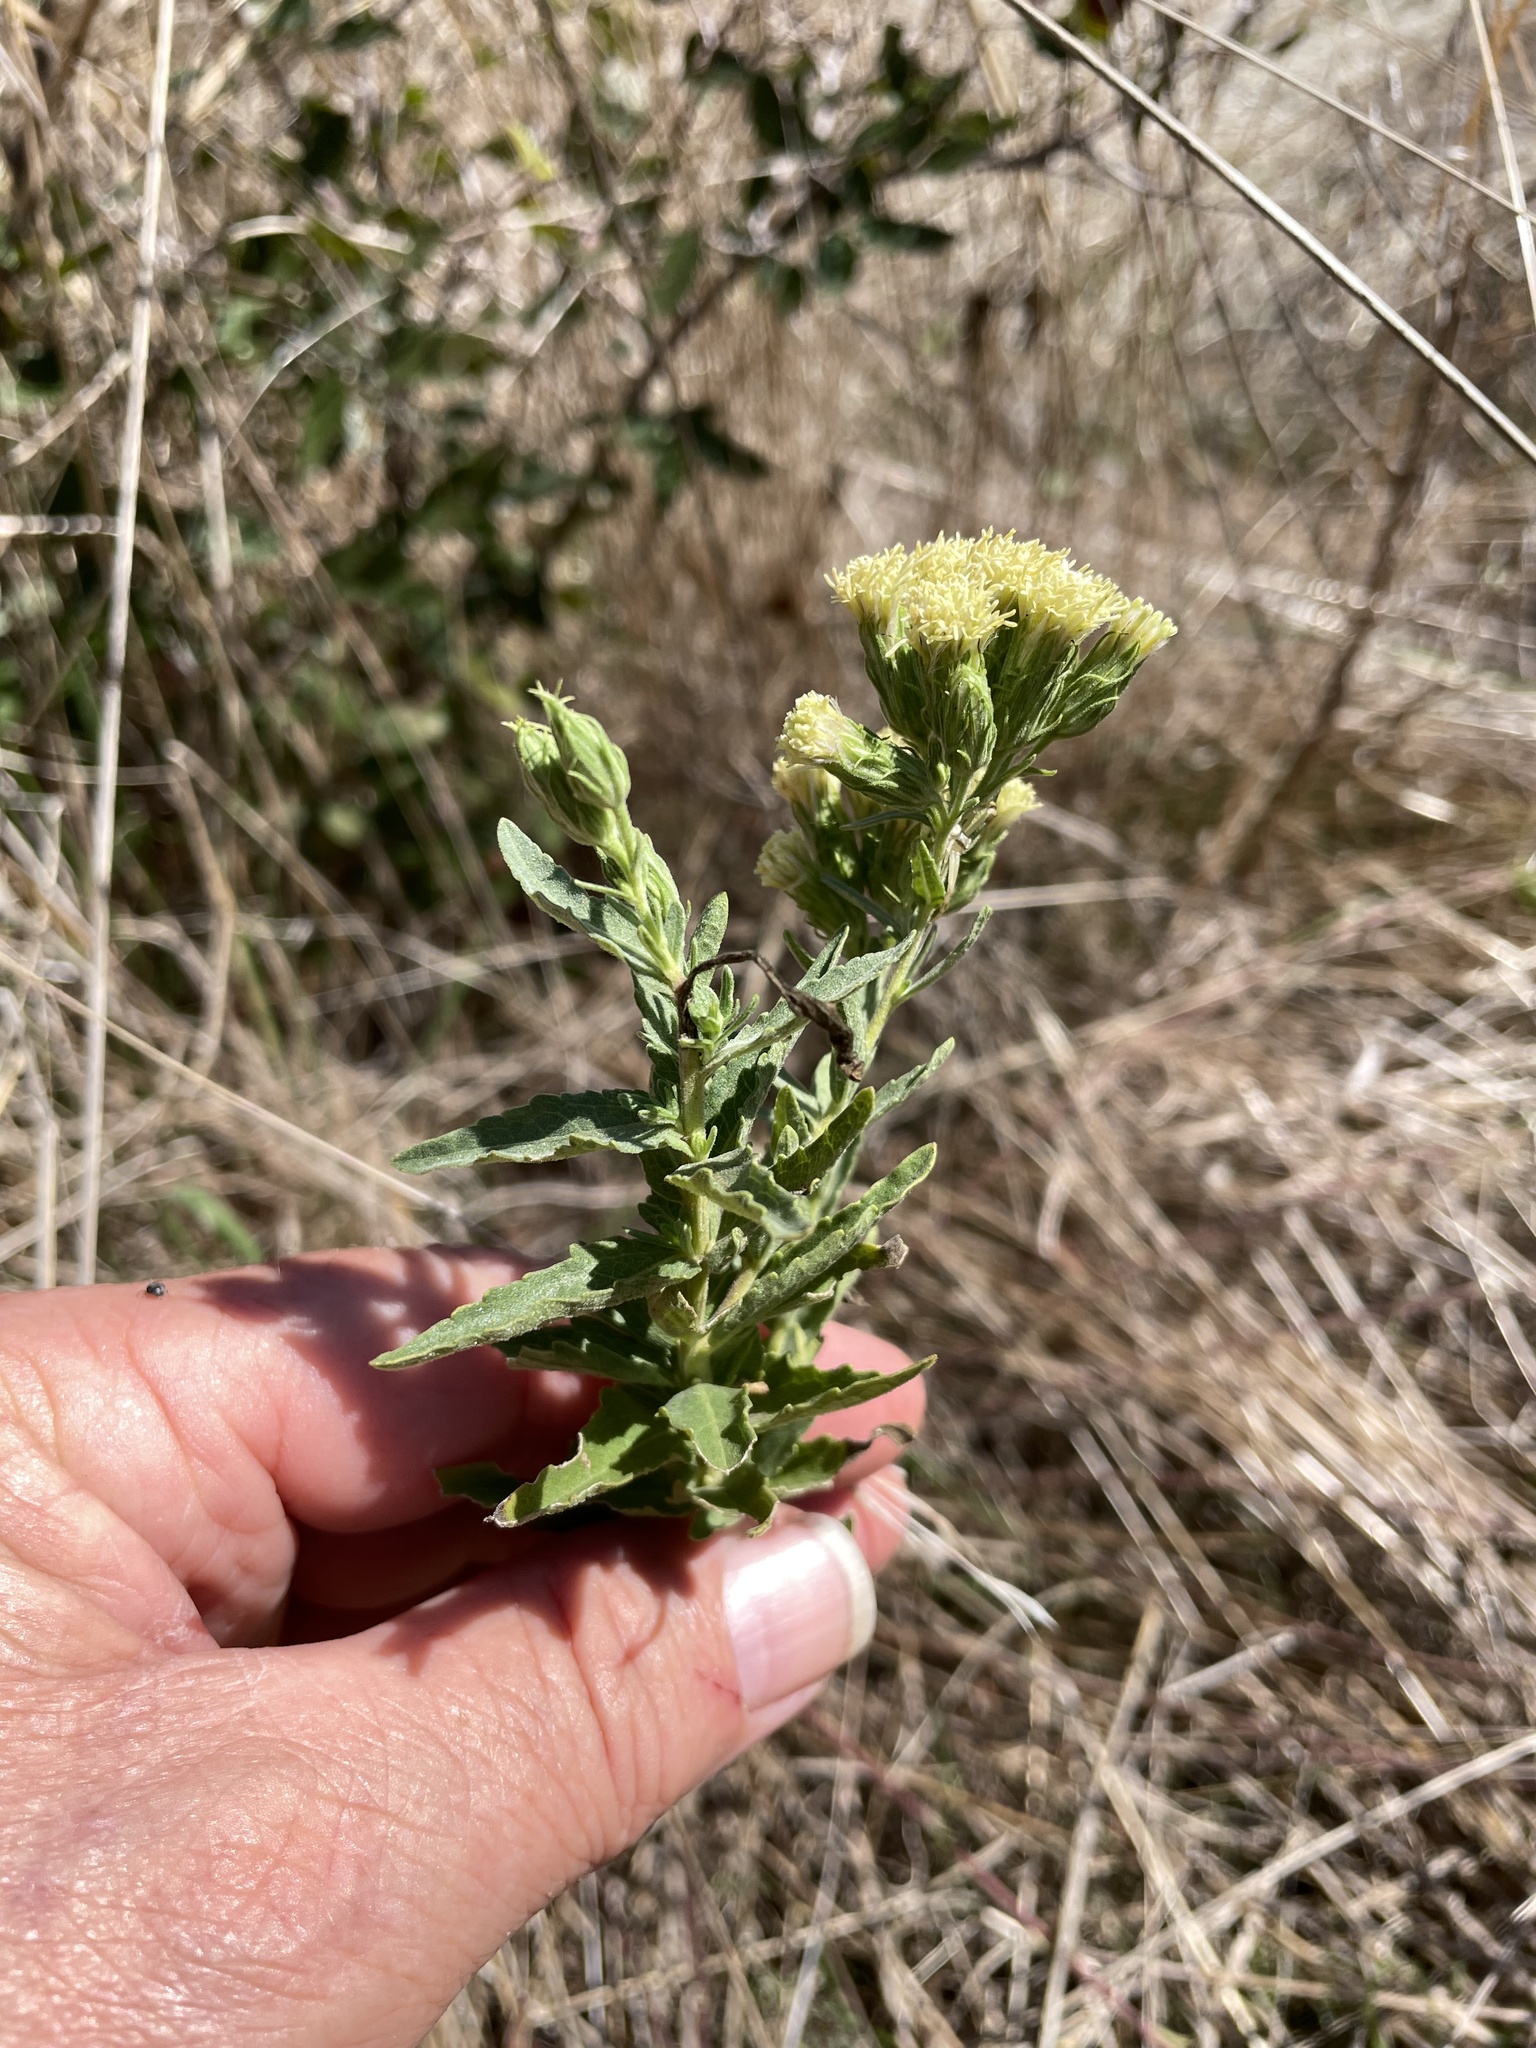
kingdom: Plantae
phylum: Tracheophyta
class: Magnoliopsida
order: Asterales
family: Asteraceae
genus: Brickellia
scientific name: Brickellia eupatorioides
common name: False boneset
